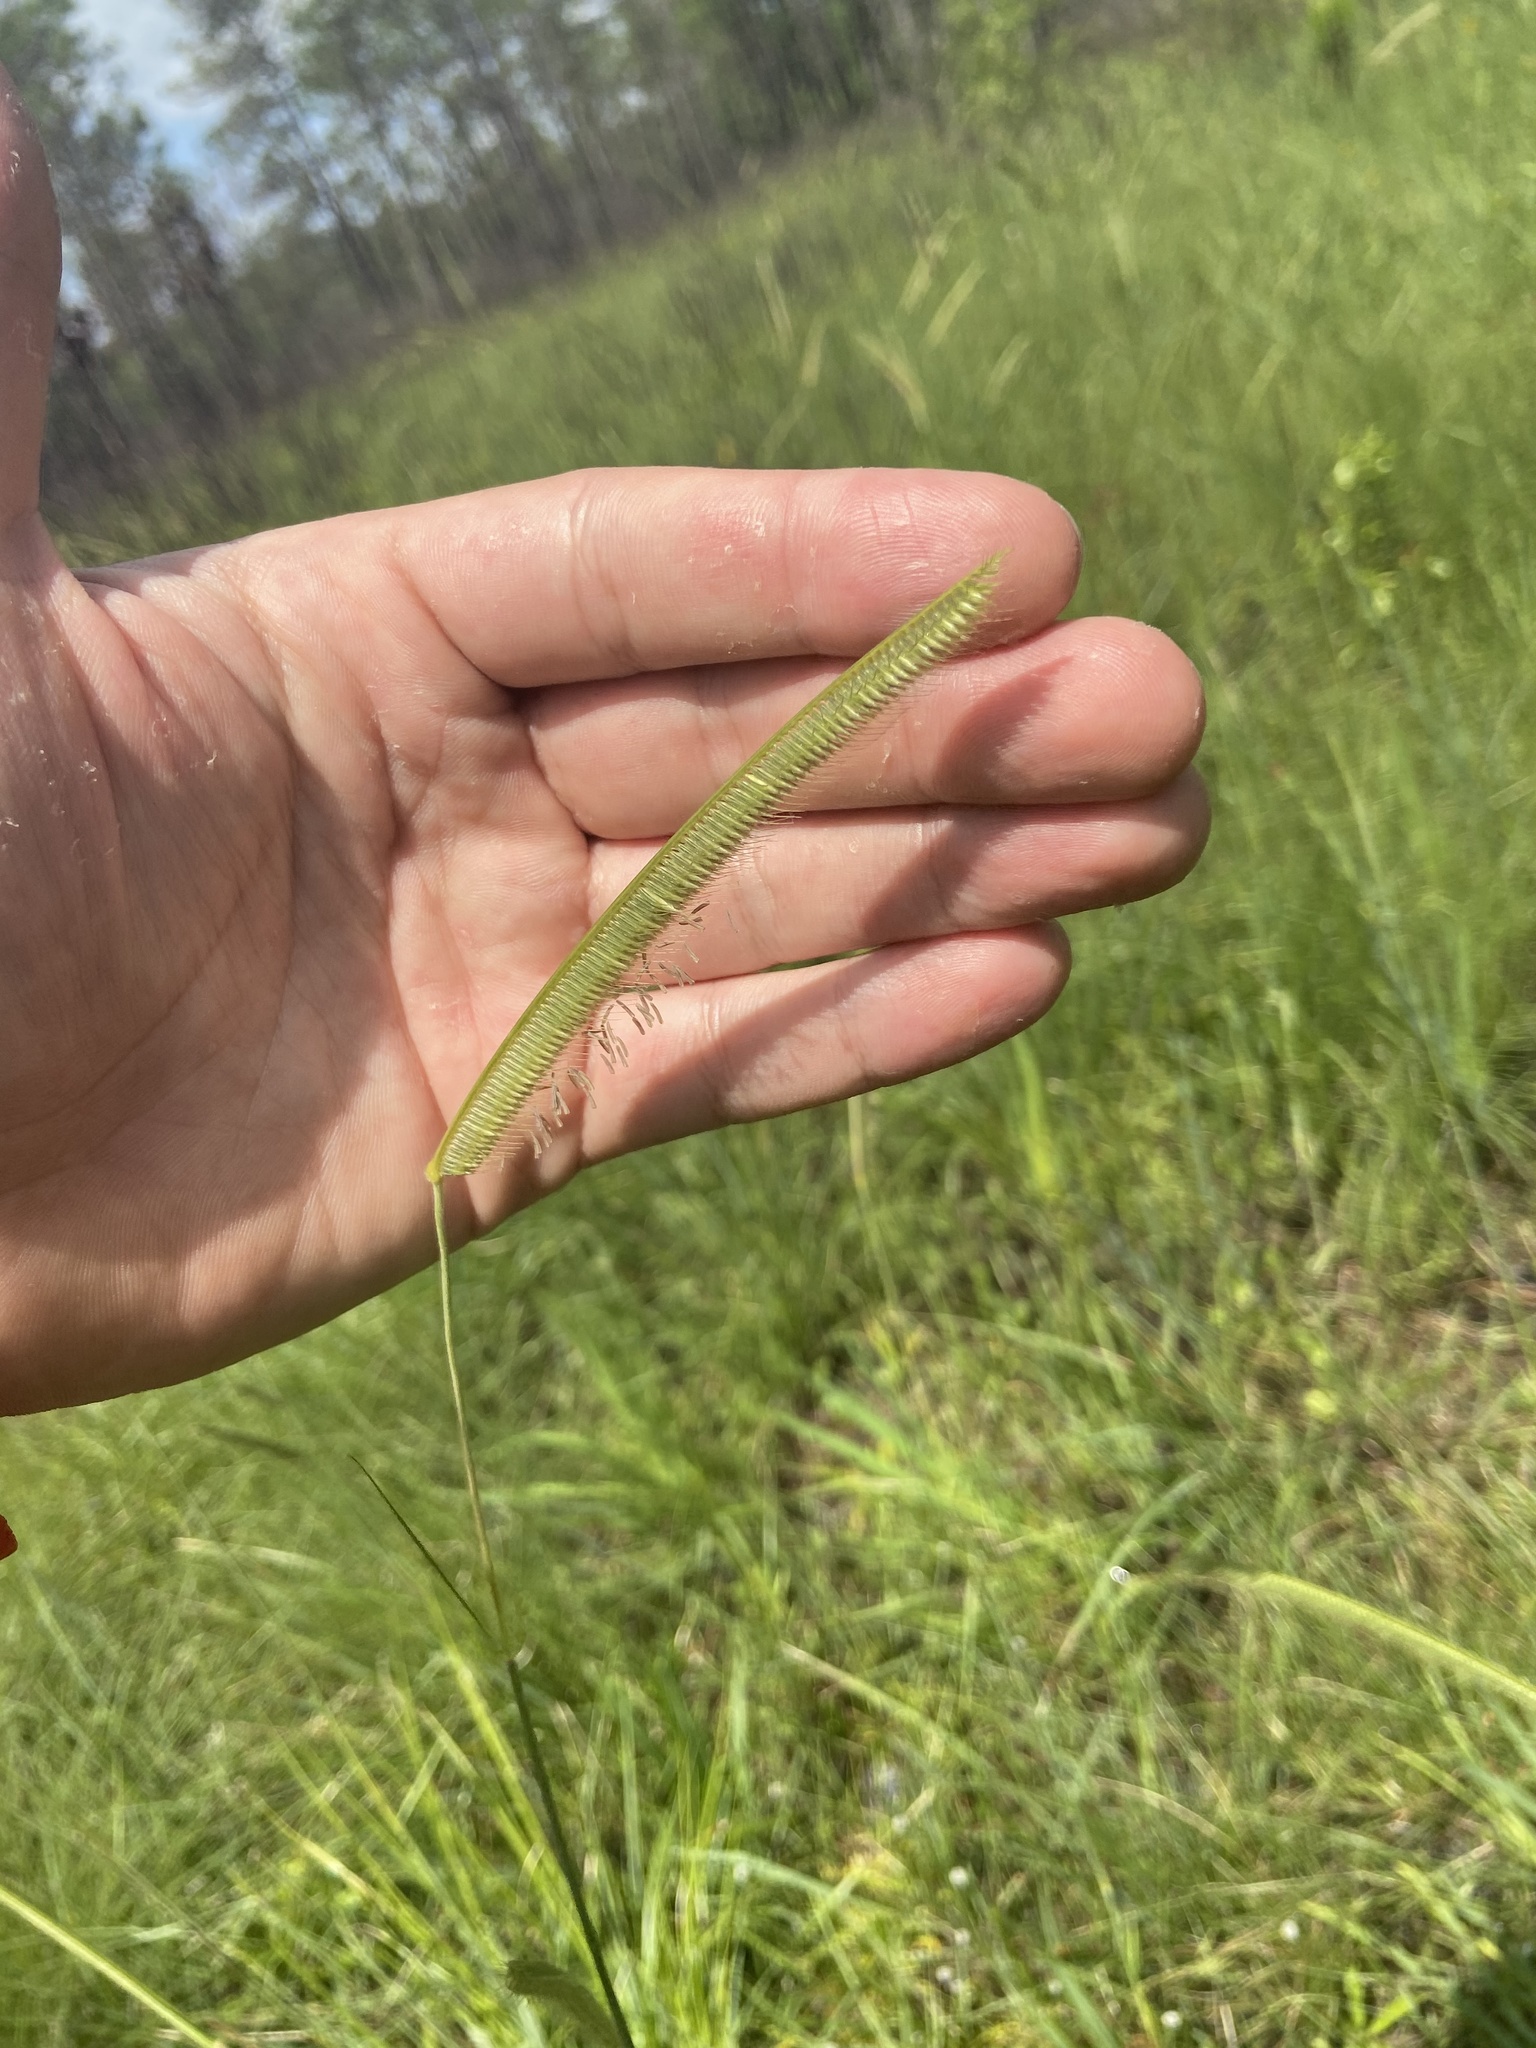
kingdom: Plantae
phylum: Tracheophyta
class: Liliopsida
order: Poales
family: Poaceae
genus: Ctenium
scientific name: Ctenium aromaticum
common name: Toothache grass
